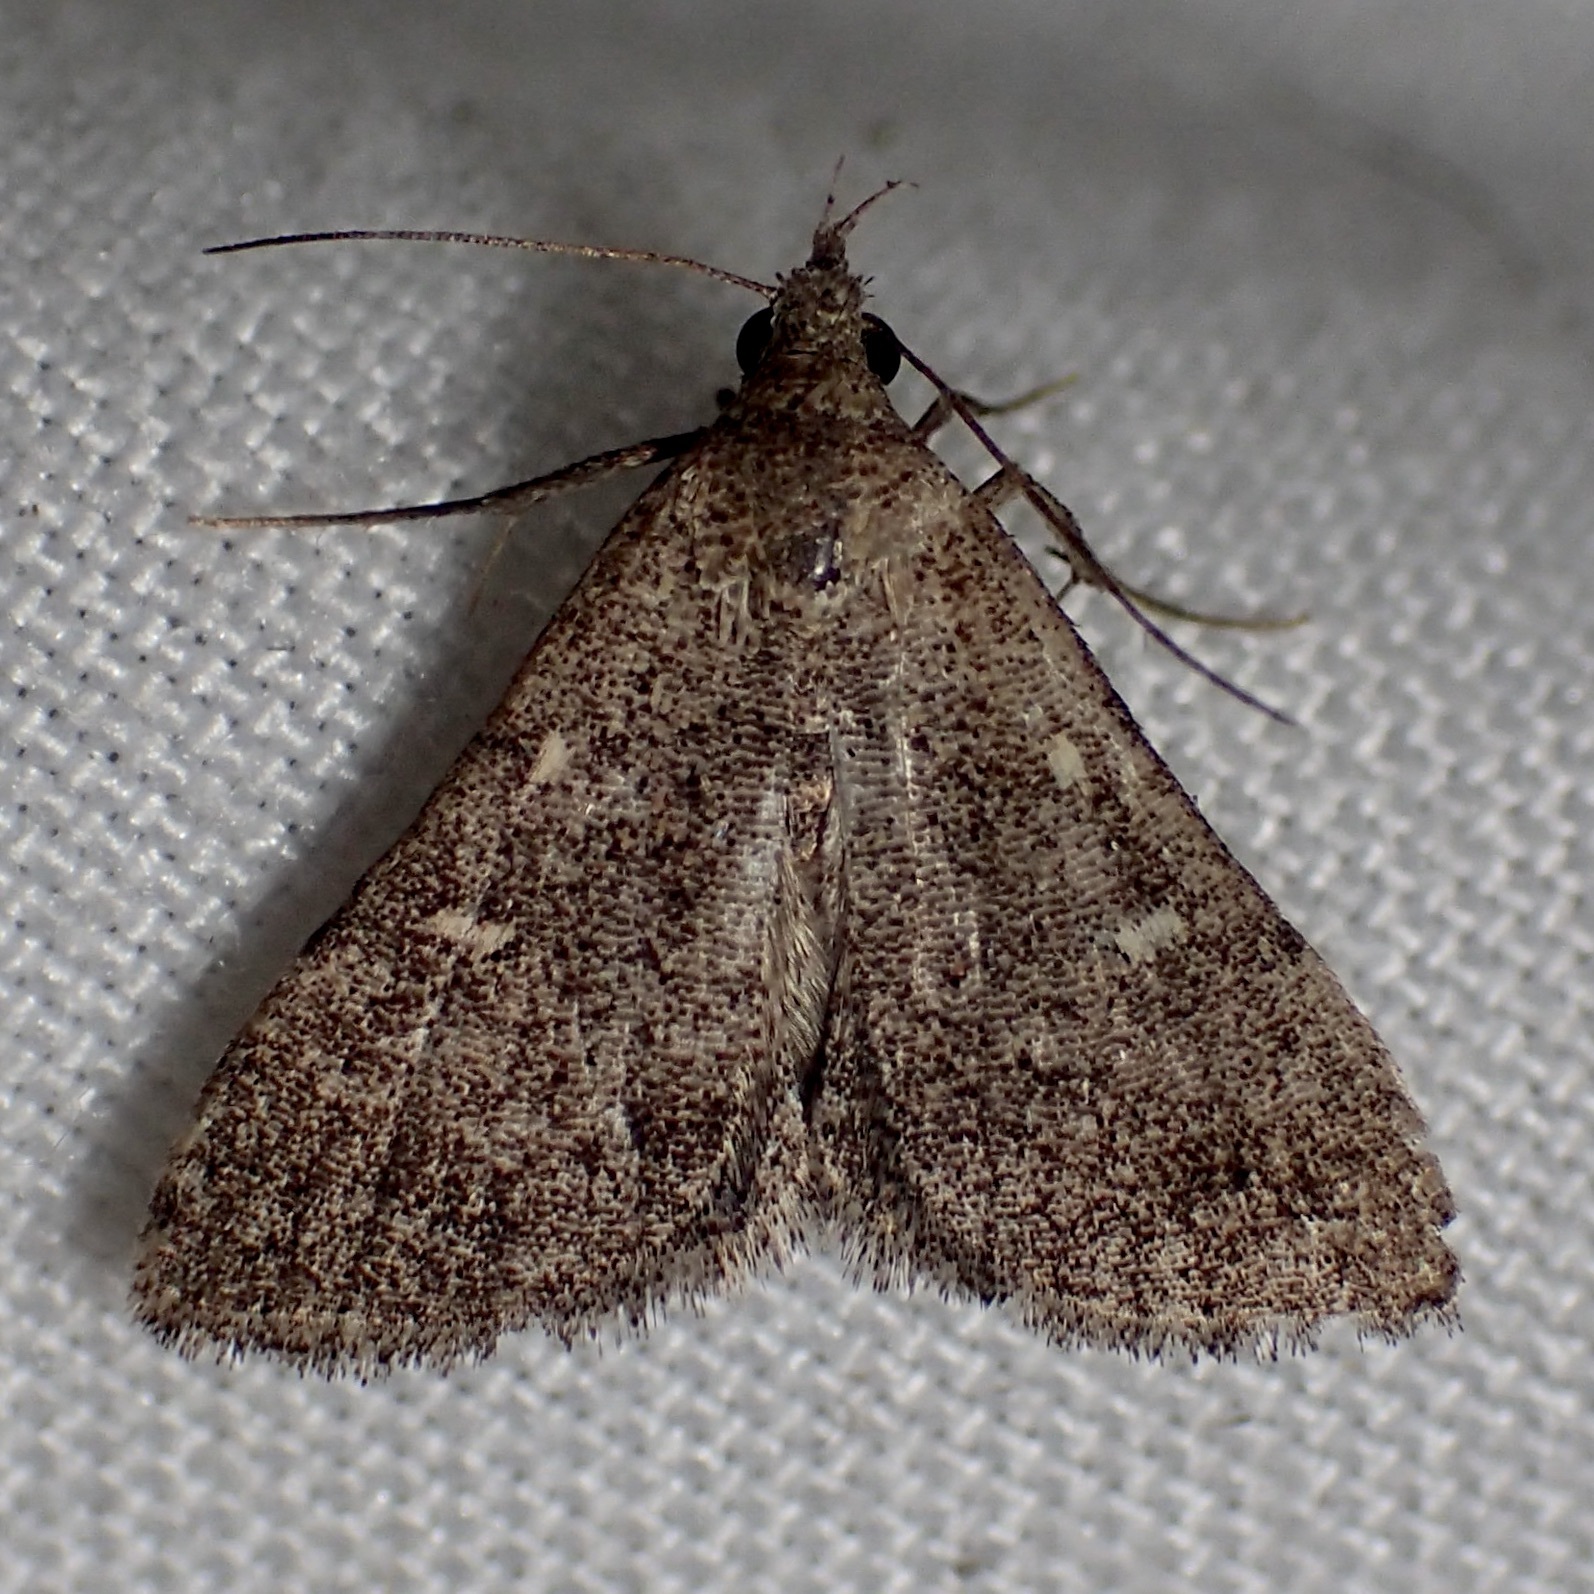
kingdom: Animalia
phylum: Arthropoda
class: Insecta
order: Lepidoptera
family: Erebidae
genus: Bleptina
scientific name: Bleptina minimalis
